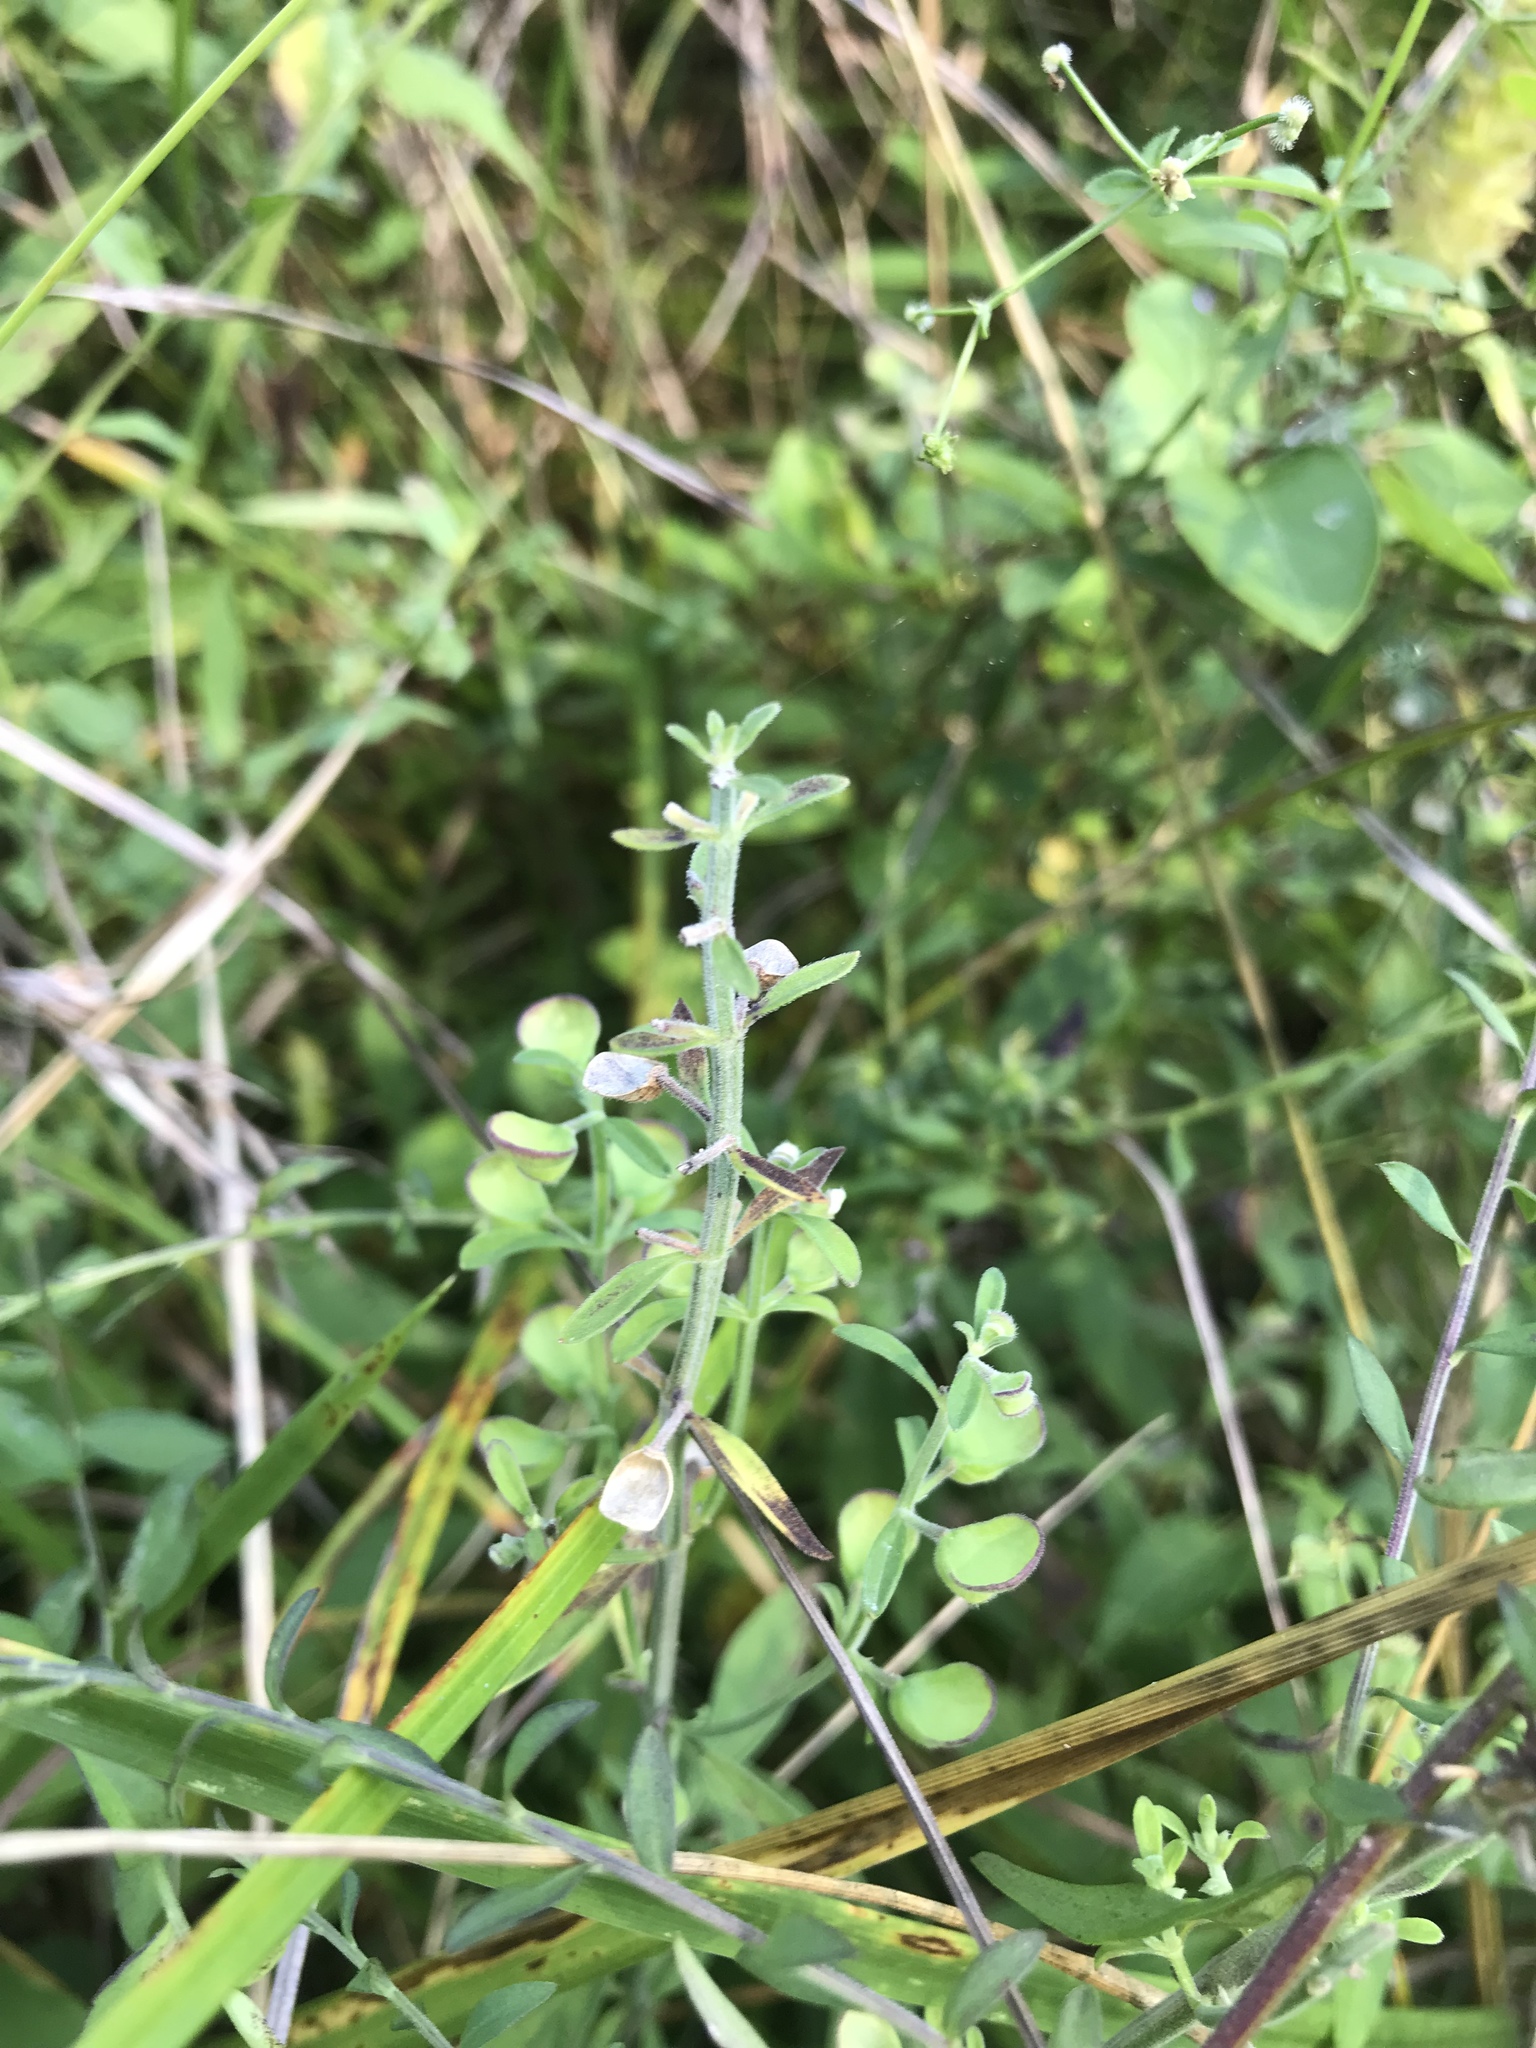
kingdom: Plantae
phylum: Tracheophyta
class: Magnoliopsida
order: Lamiales
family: Lamiaceae
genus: Scutellaria
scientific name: Scutellaria integrifolia
